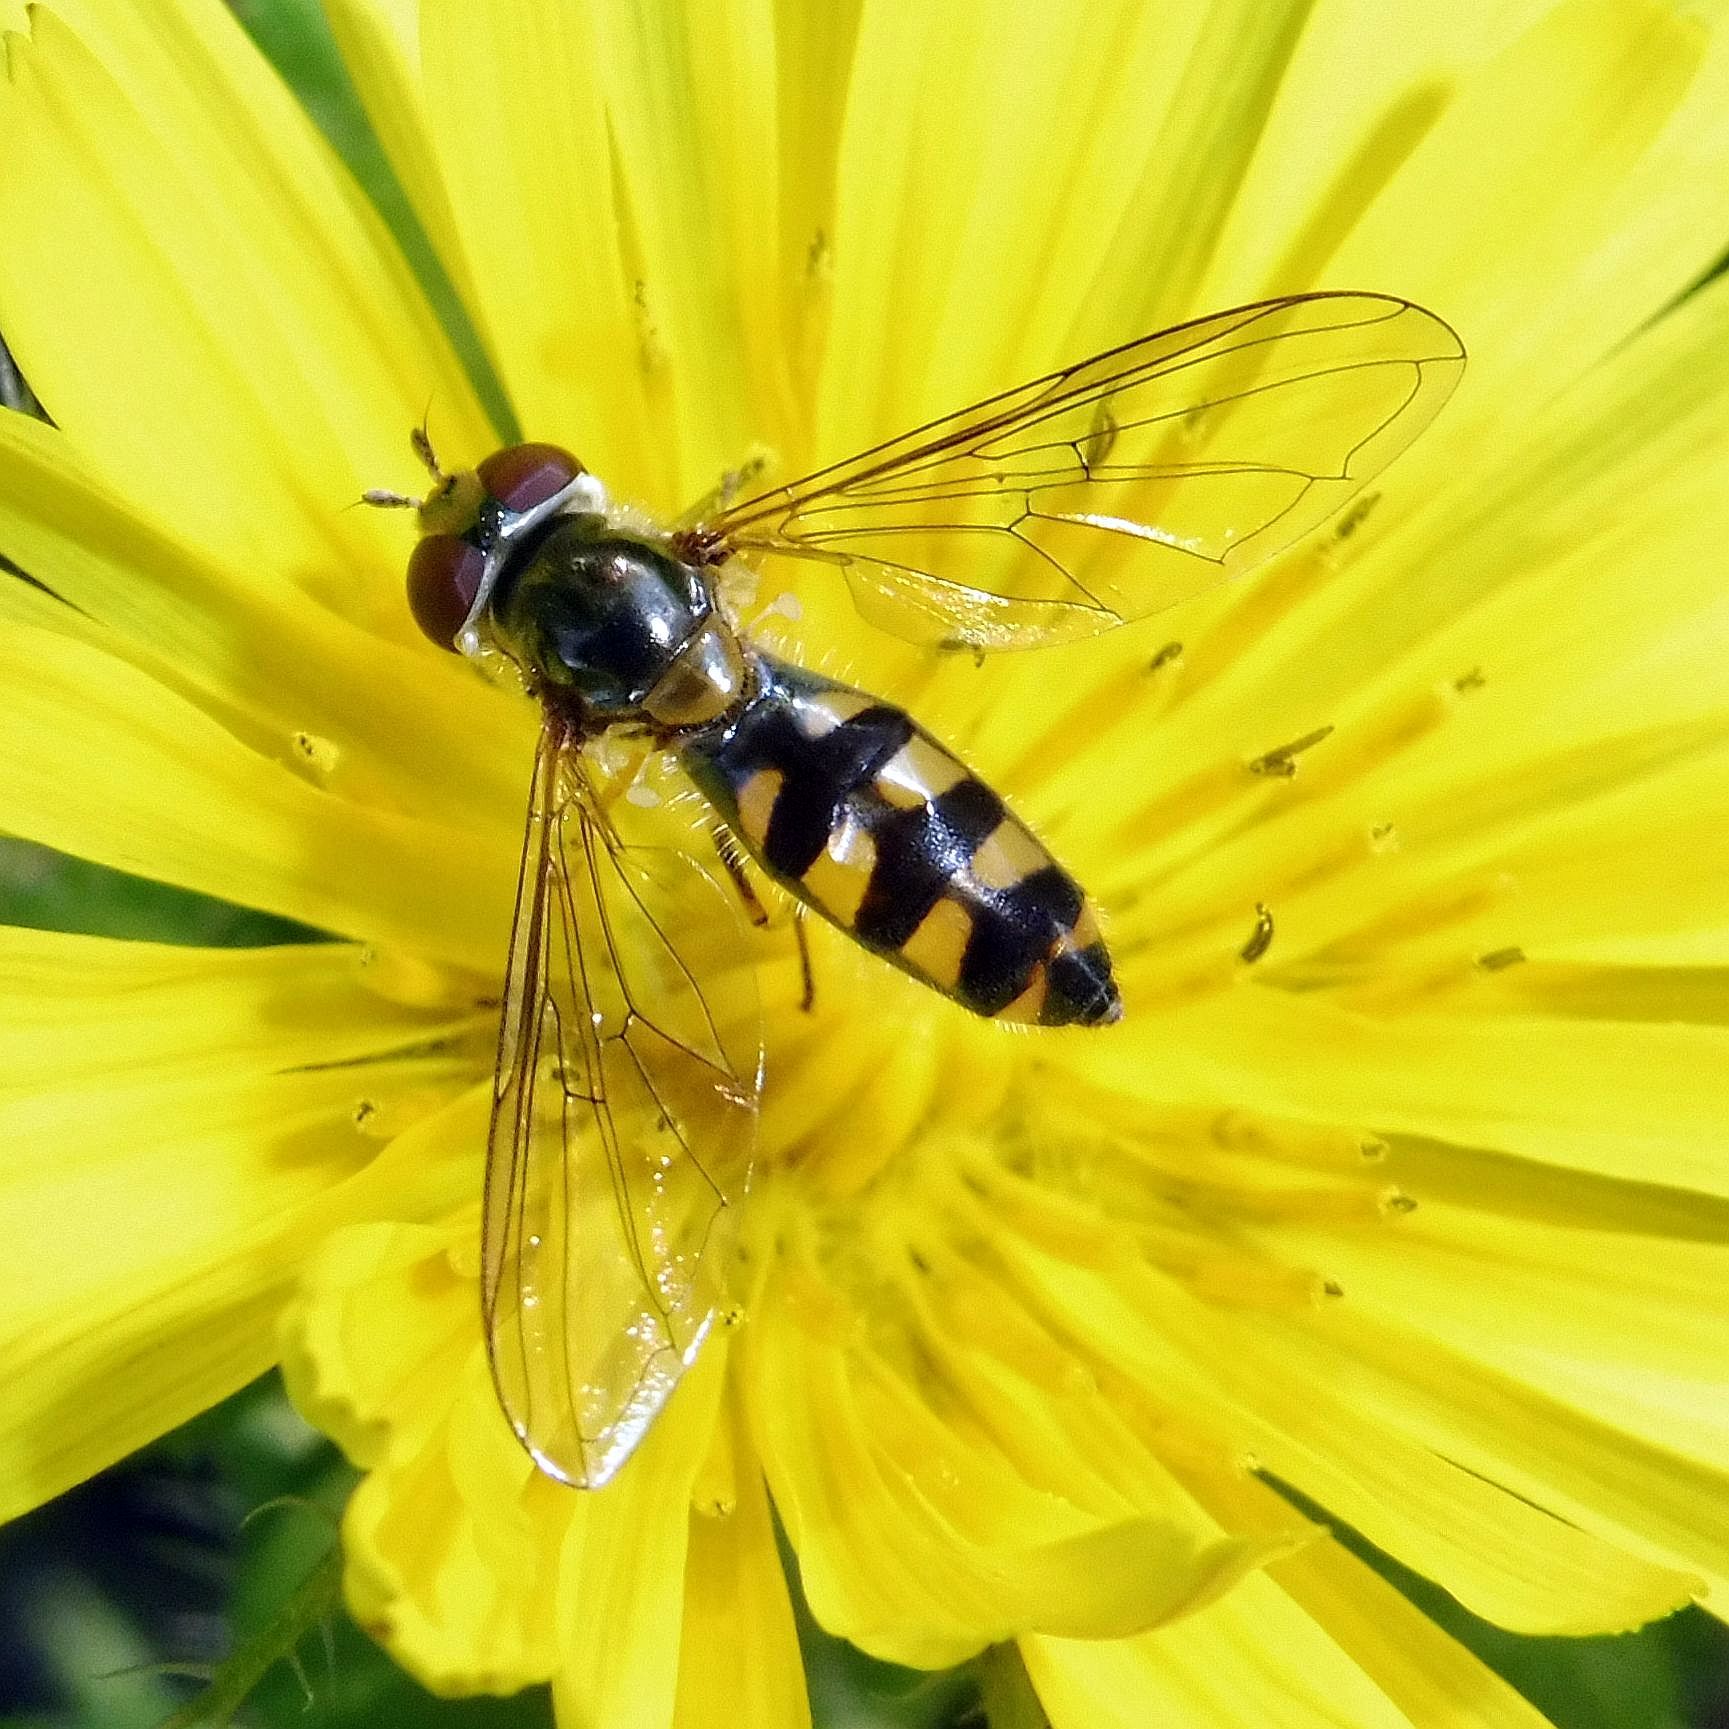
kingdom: Animalia
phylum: Arthropoda
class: Insecta
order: Diptera
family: Syrphidae
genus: Meliscaeva
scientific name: Meliscaeva auricollis
